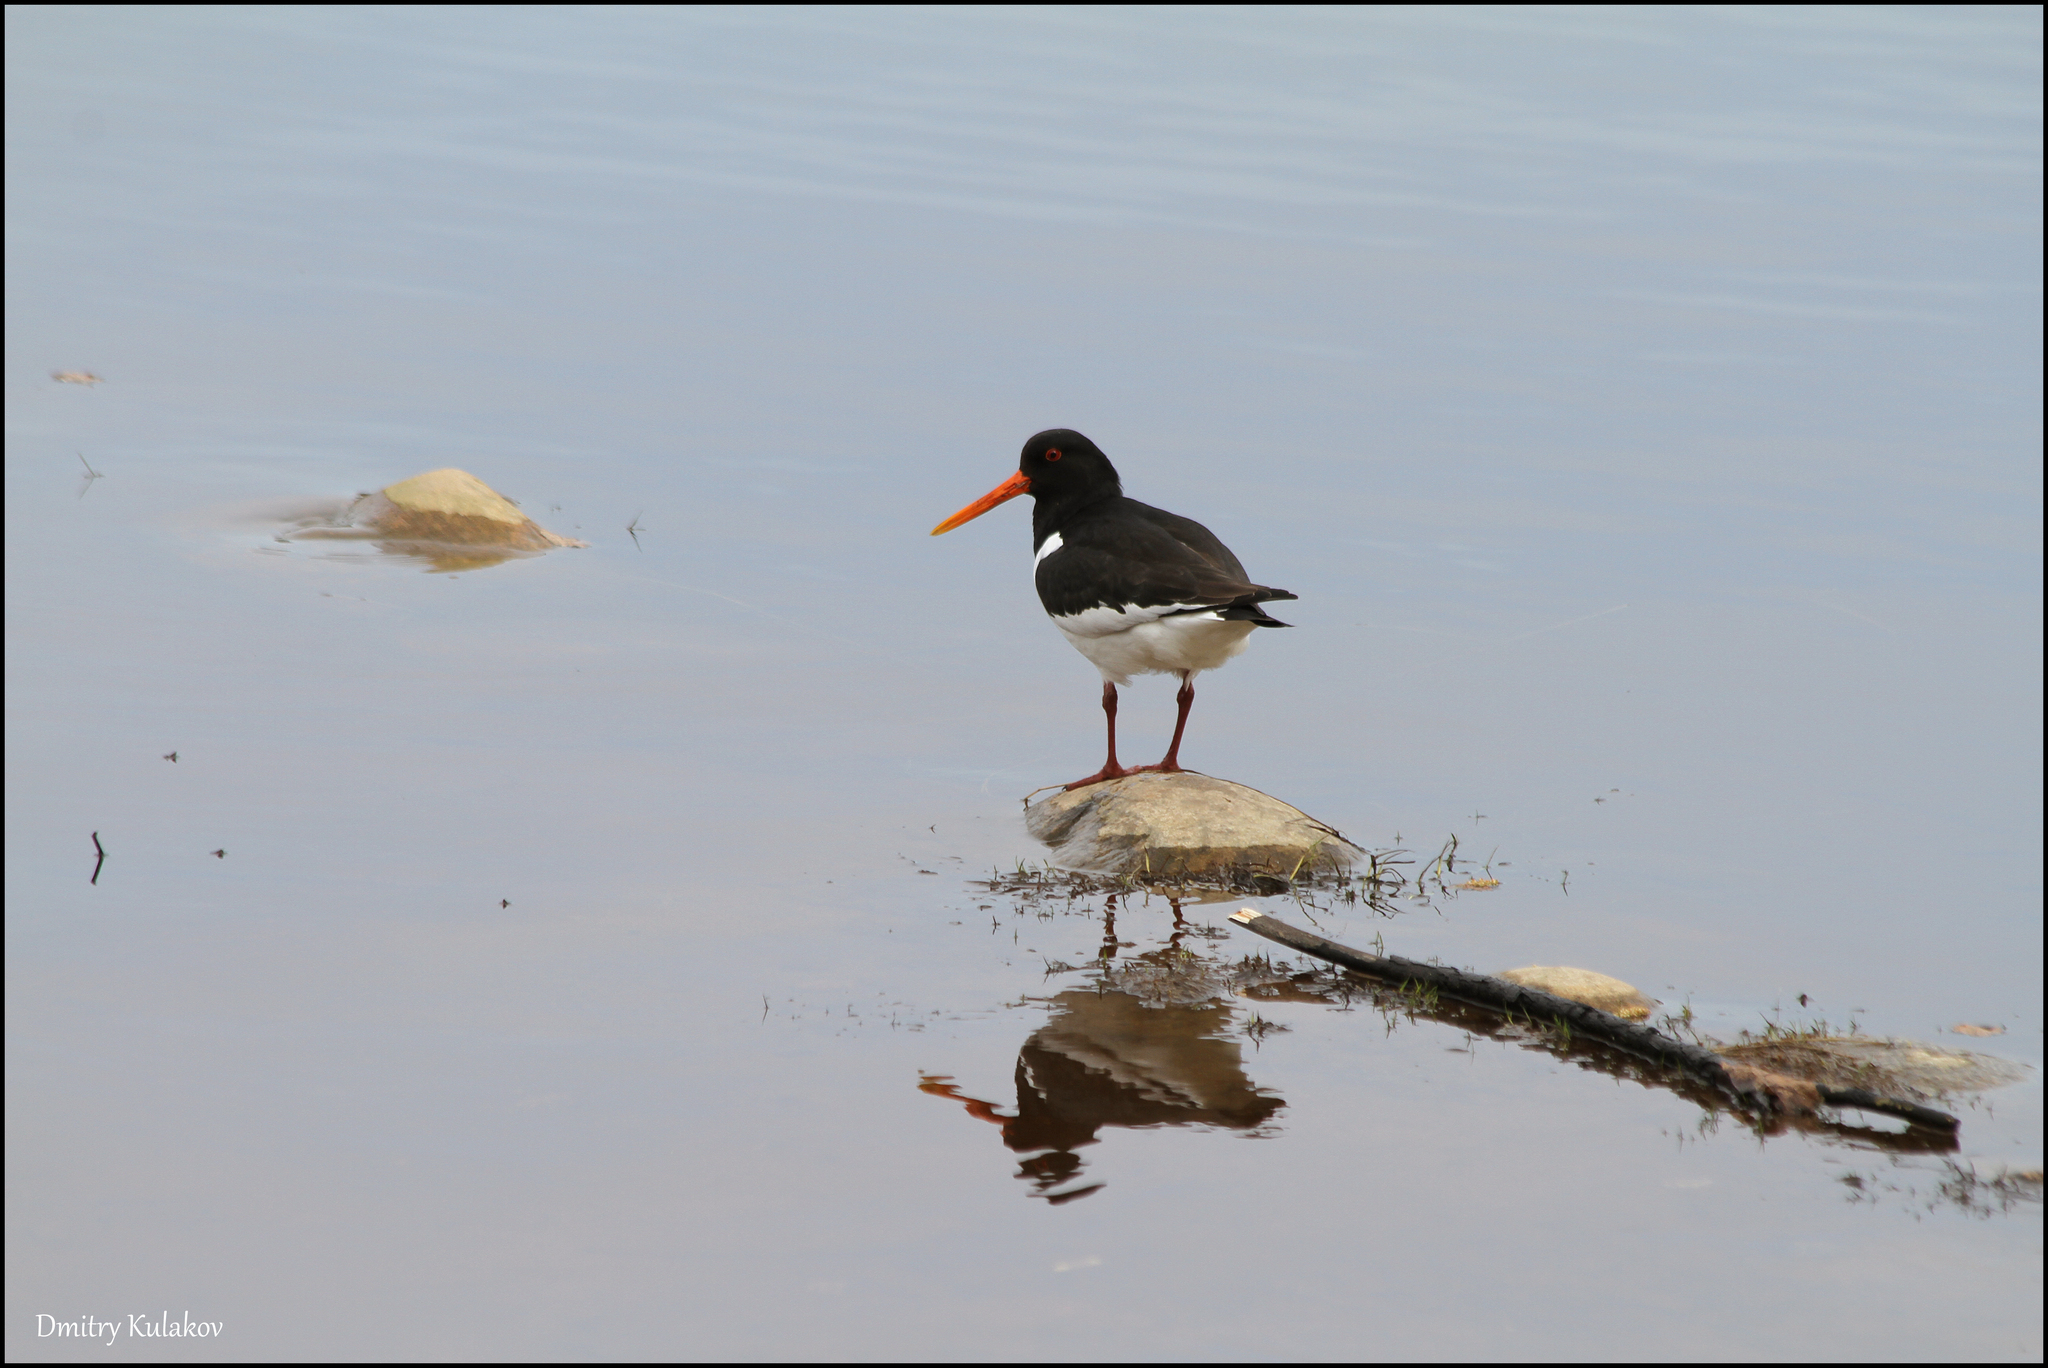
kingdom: Animalia
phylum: Chordata
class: Aves
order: Charadriiformes
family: Haematopodidae
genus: Haematopus
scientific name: Haematopus ostralegus
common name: Eurasian oystercatcher
